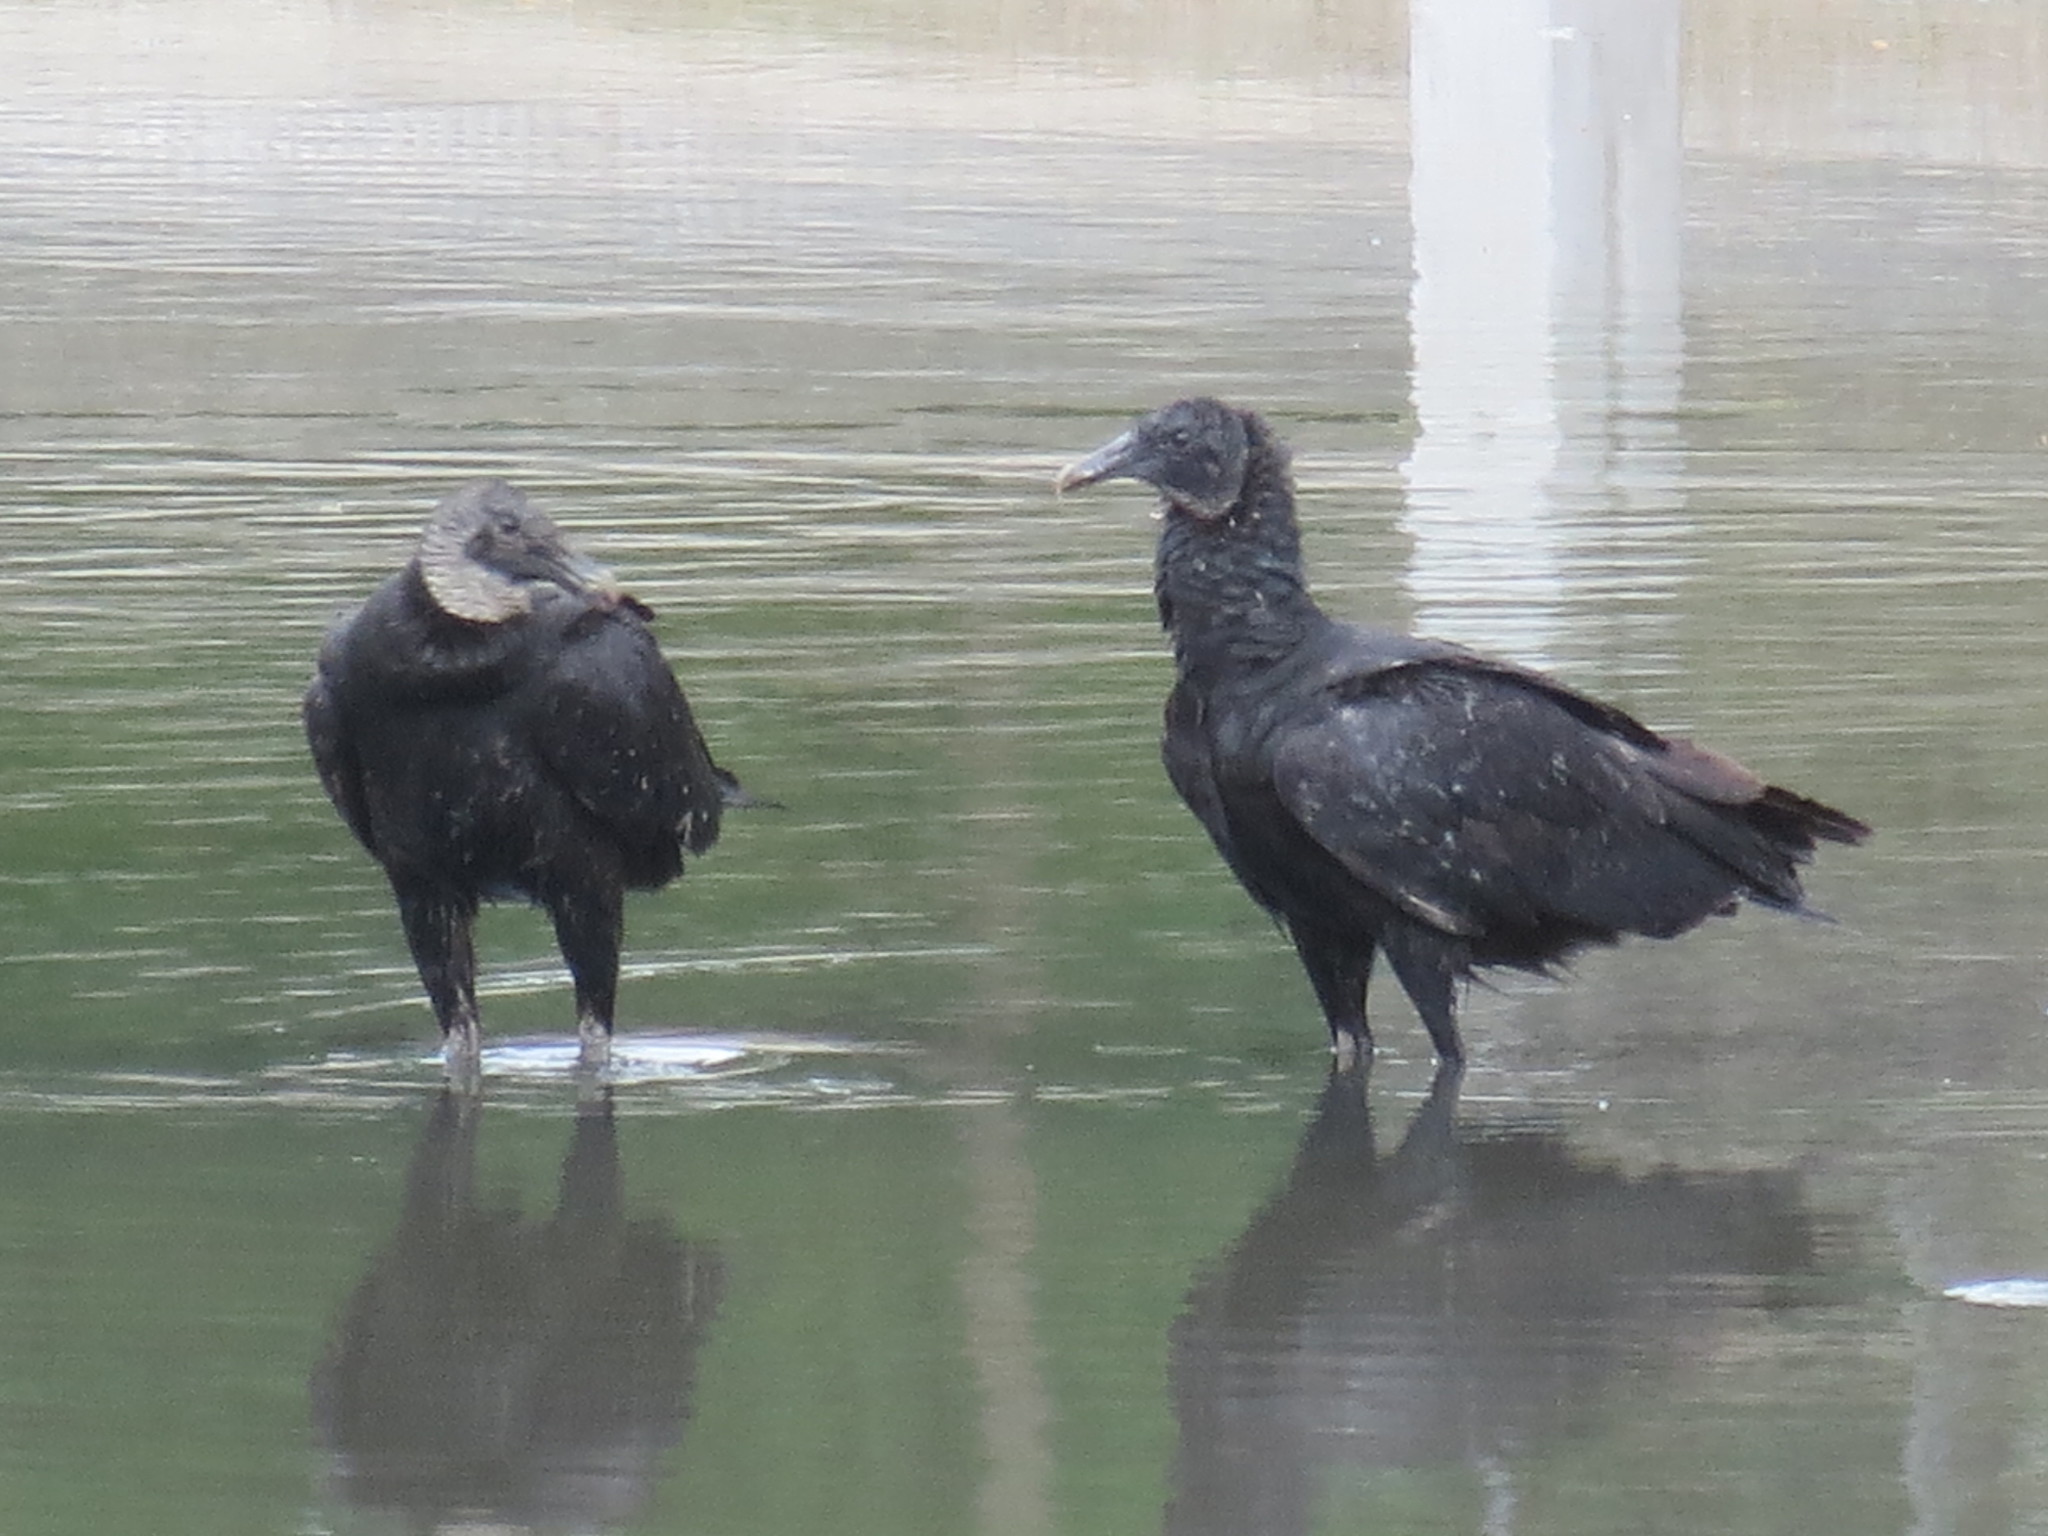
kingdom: Animalia
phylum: Chordata
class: Aves
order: Accipitriformes
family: Cathartidae
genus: Coragyps
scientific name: Coragyps atratus
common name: Black vulture
